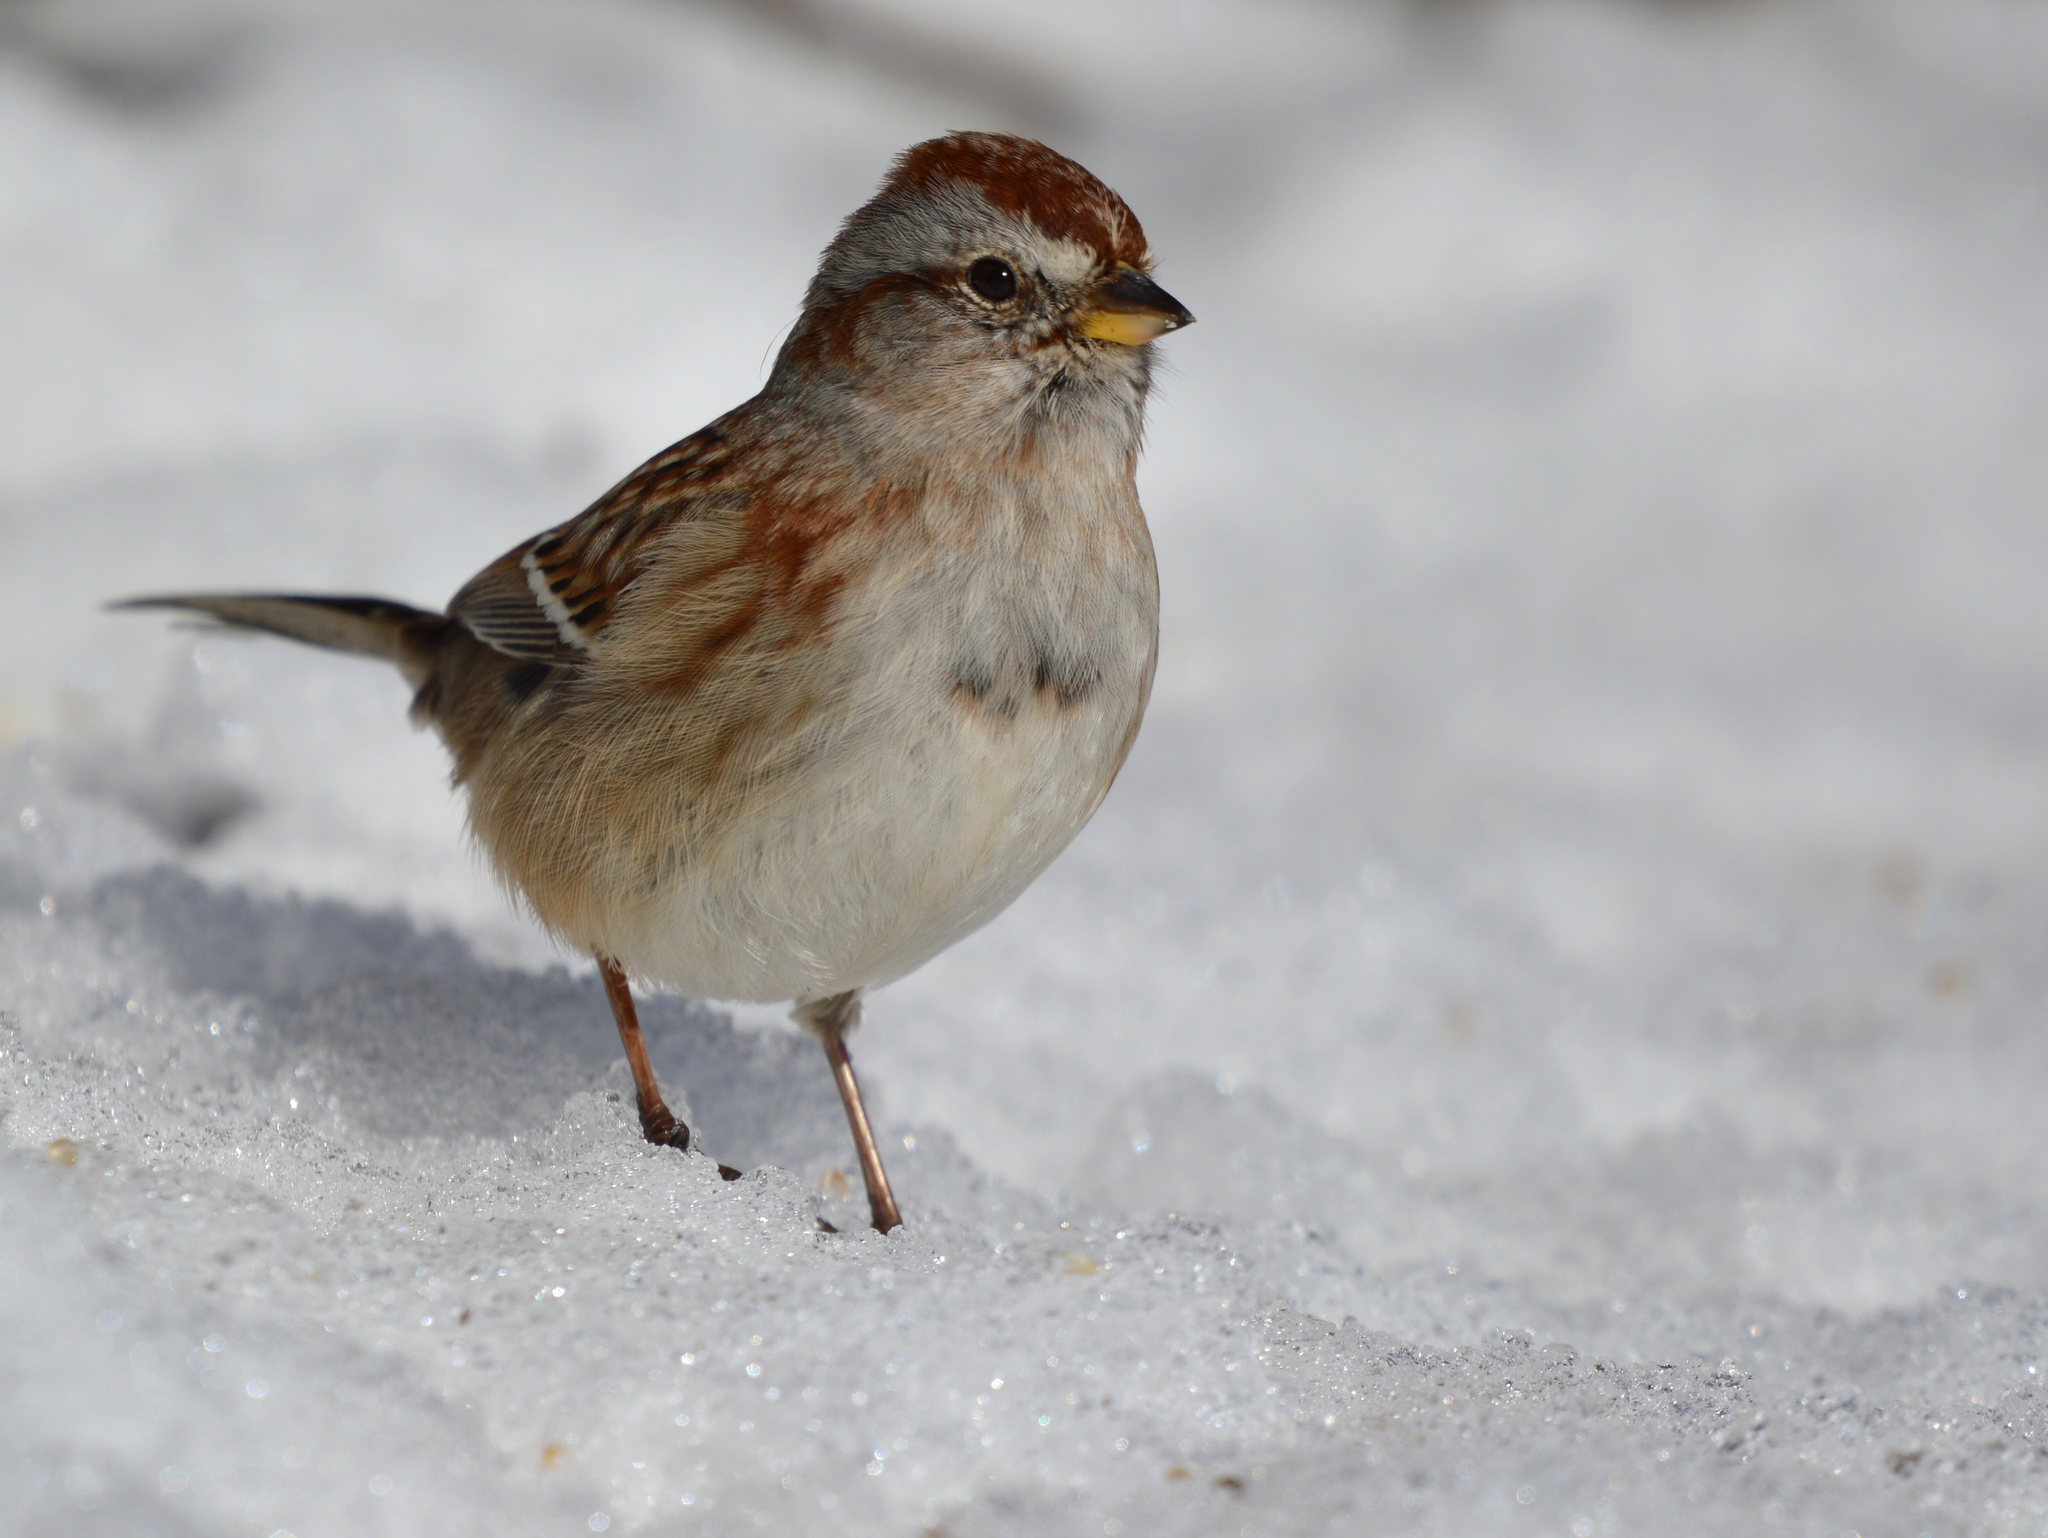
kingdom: Animalia
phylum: Chordata
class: Aves
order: Passeriformes
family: Passerellidae
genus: Spizelloides
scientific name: Spizelloides arborea
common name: American tree sparrow
